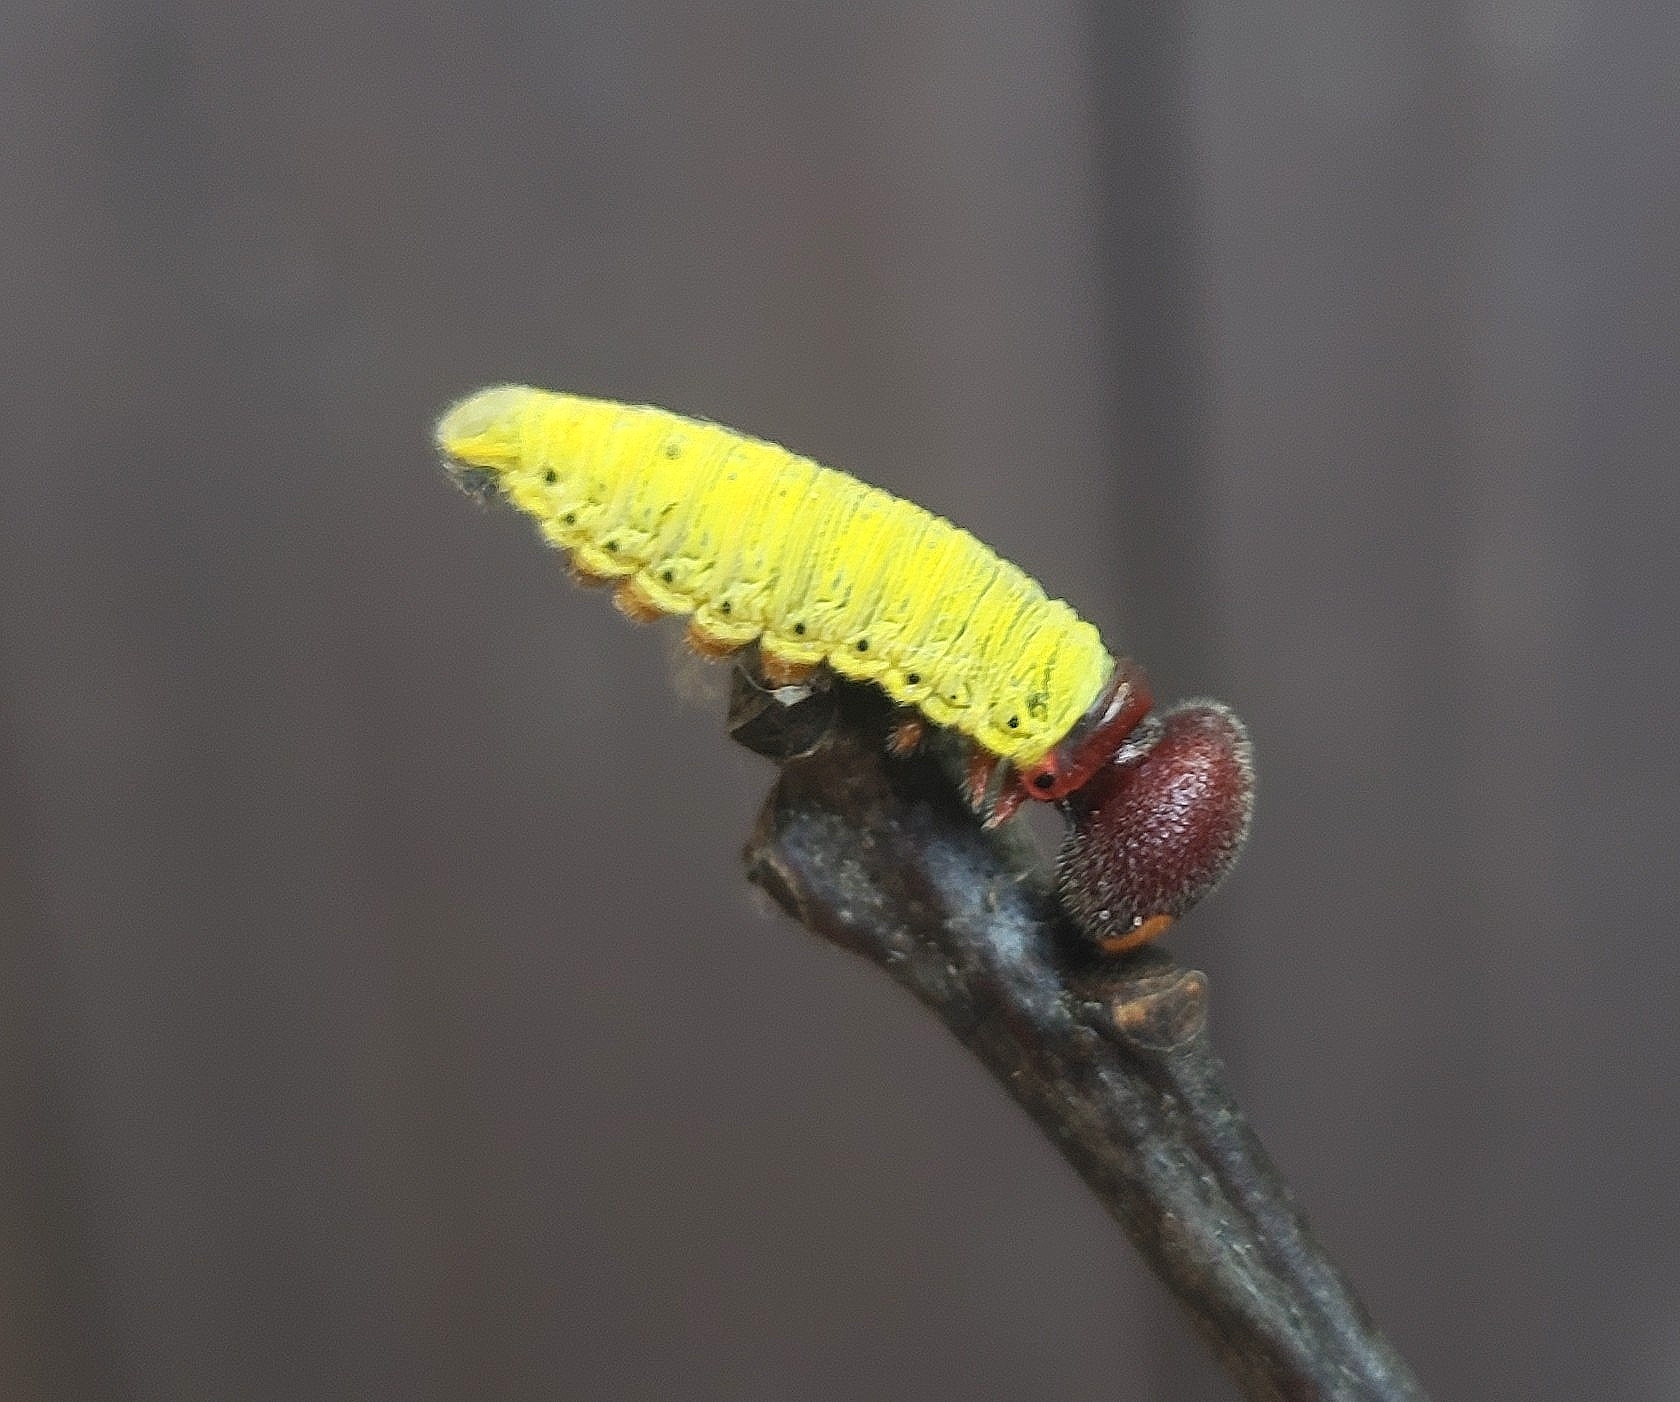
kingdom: Animalia
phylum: Arthropoda
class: Insecta
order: Lepidoptera
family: Hesperiidae
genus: Epargyreus
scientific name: Epargyreus clarus
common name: Silver-spotted skipper
